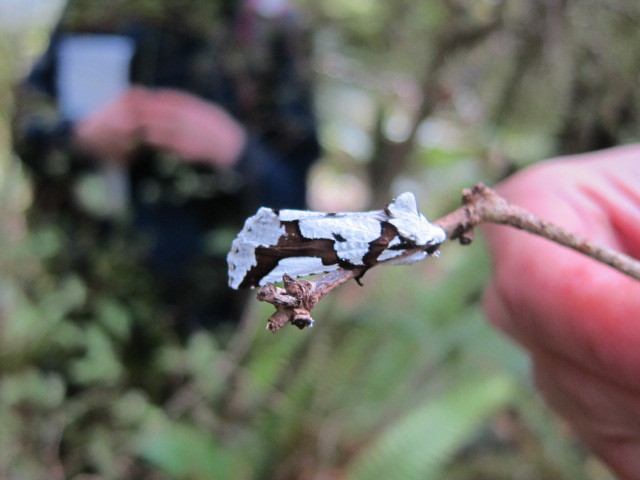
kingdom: Animalia
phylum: Arthropoda
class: Insecta
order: Lepidoptera
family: Geometridae
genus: Declana
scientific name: Declana
